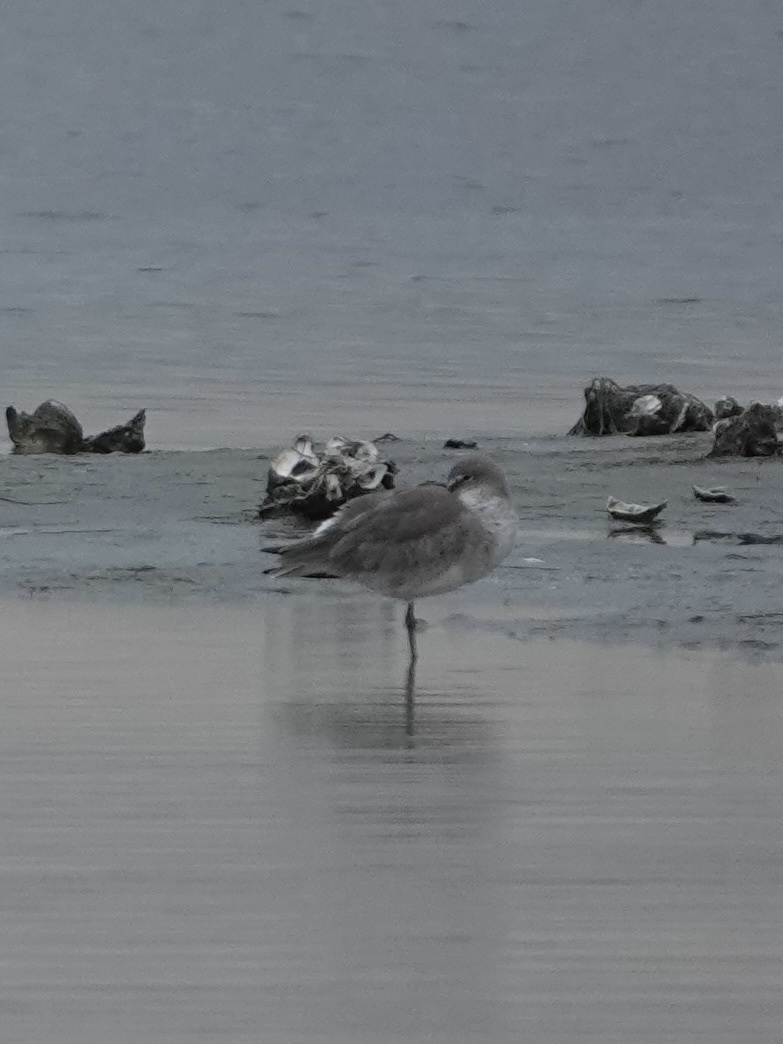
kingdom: Animalia
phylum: Chordata
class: Aves
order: Charadriiformes
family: Scolopacidae
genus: Tringa
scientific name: Tringa semipalmata
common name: Willet
